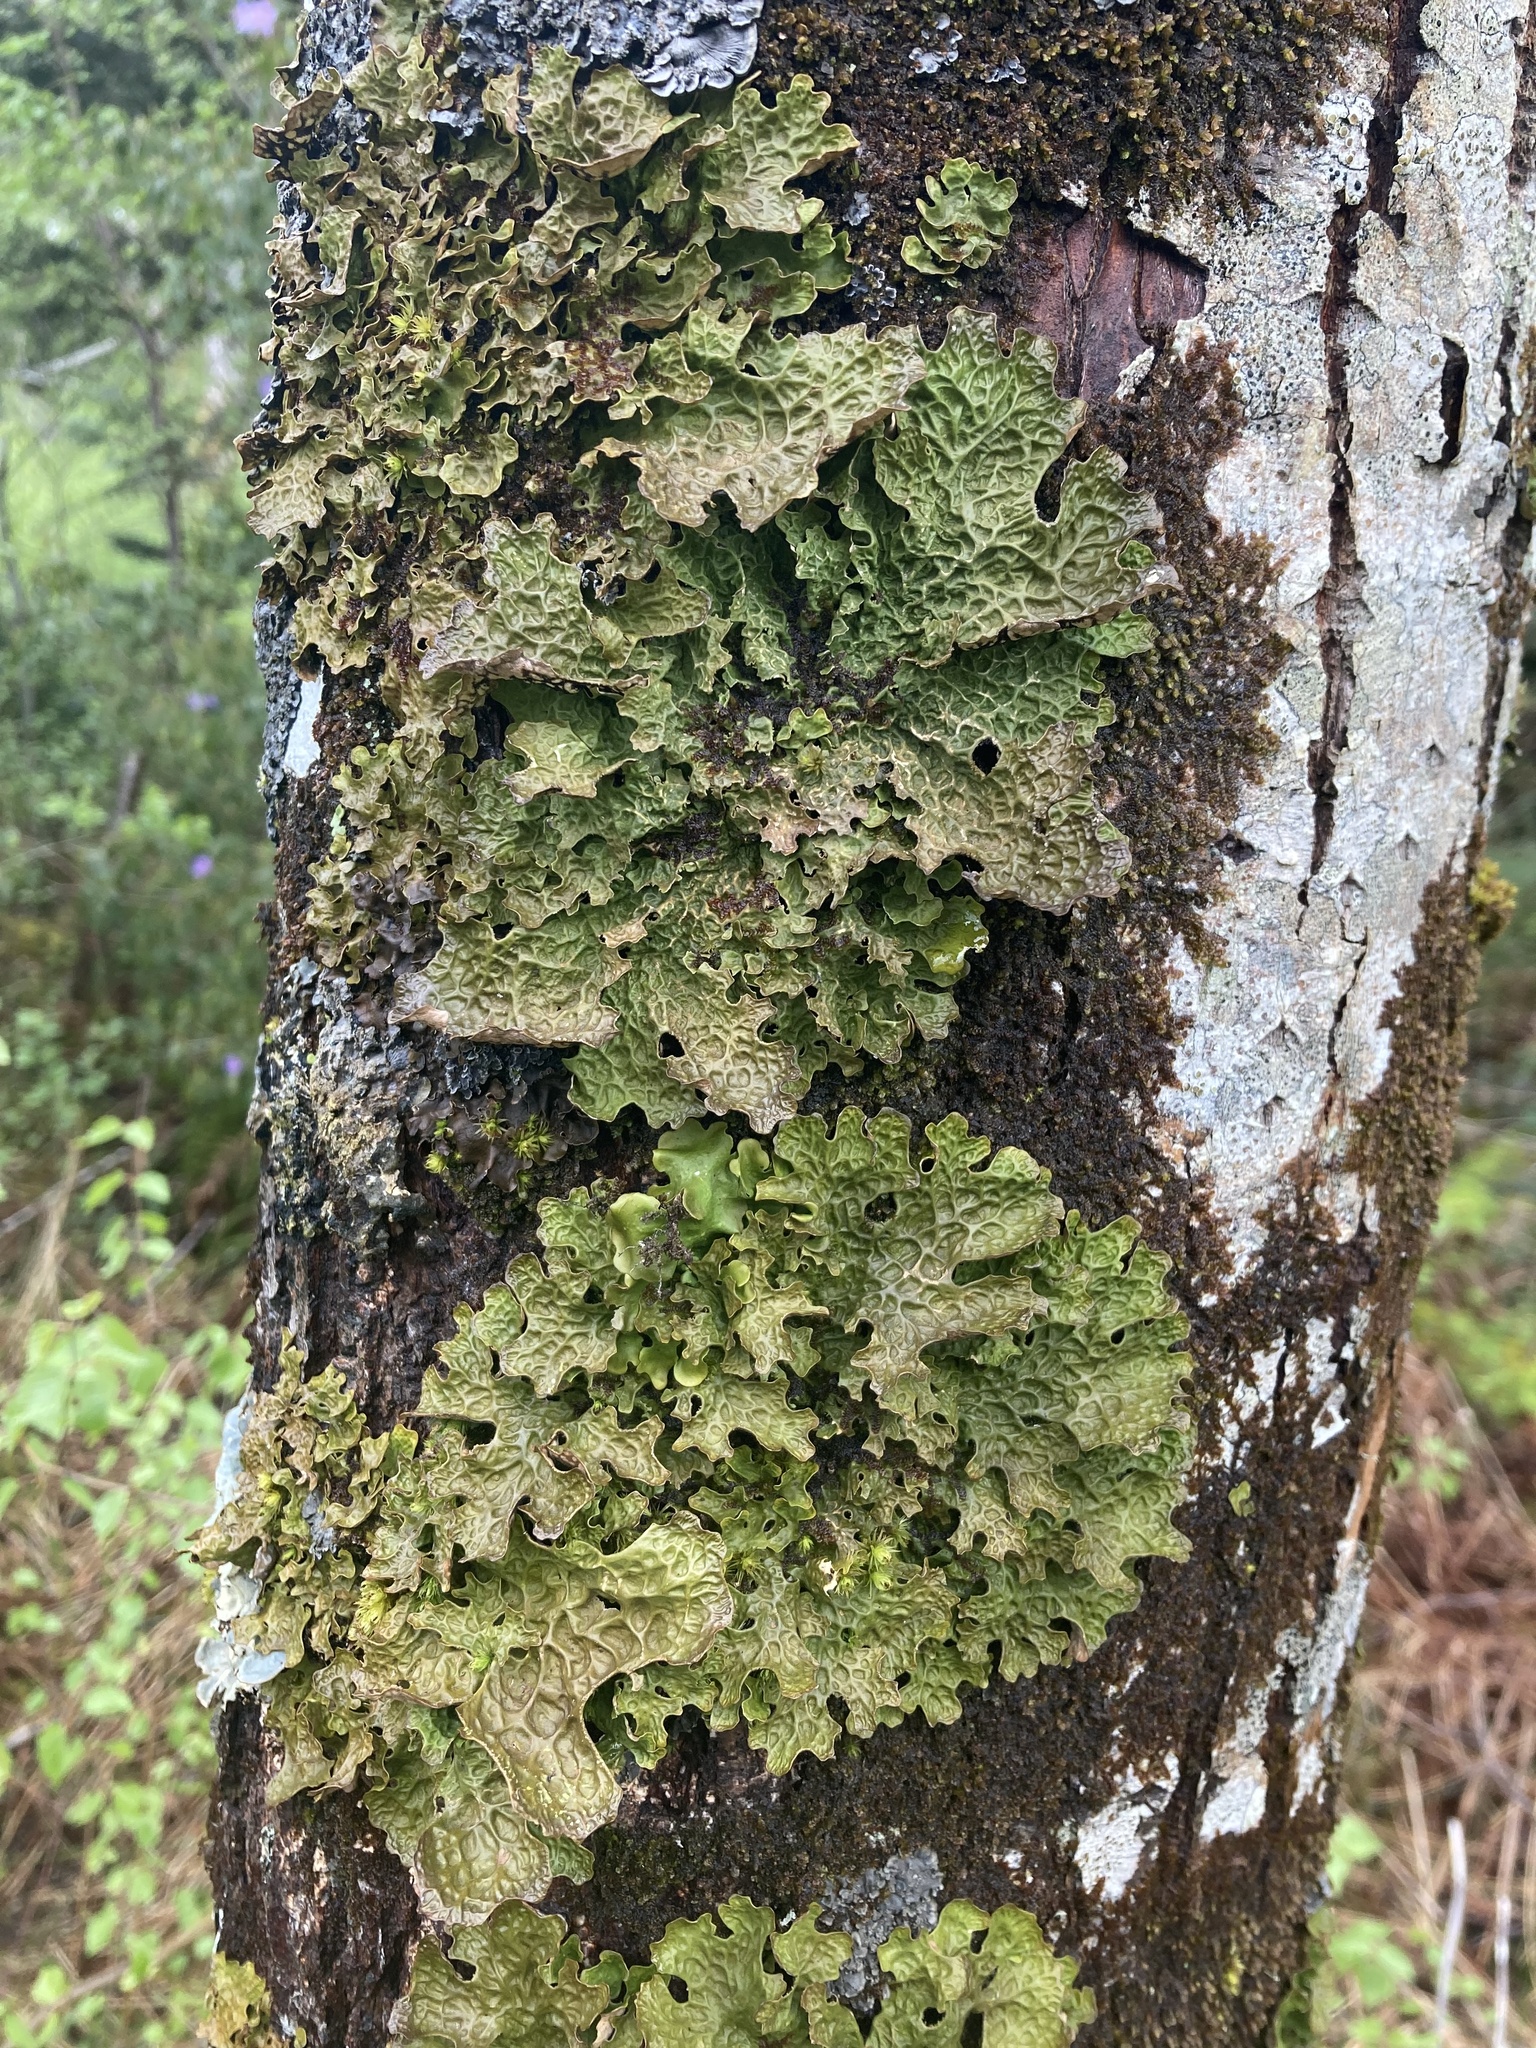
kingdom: Fungi
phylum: Ascomycota
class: Lecanoromycetes
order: Peltigerales
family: Lobariaceae
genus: Lobaria
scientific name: Lobaria pulmonaria
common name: Lungwort
